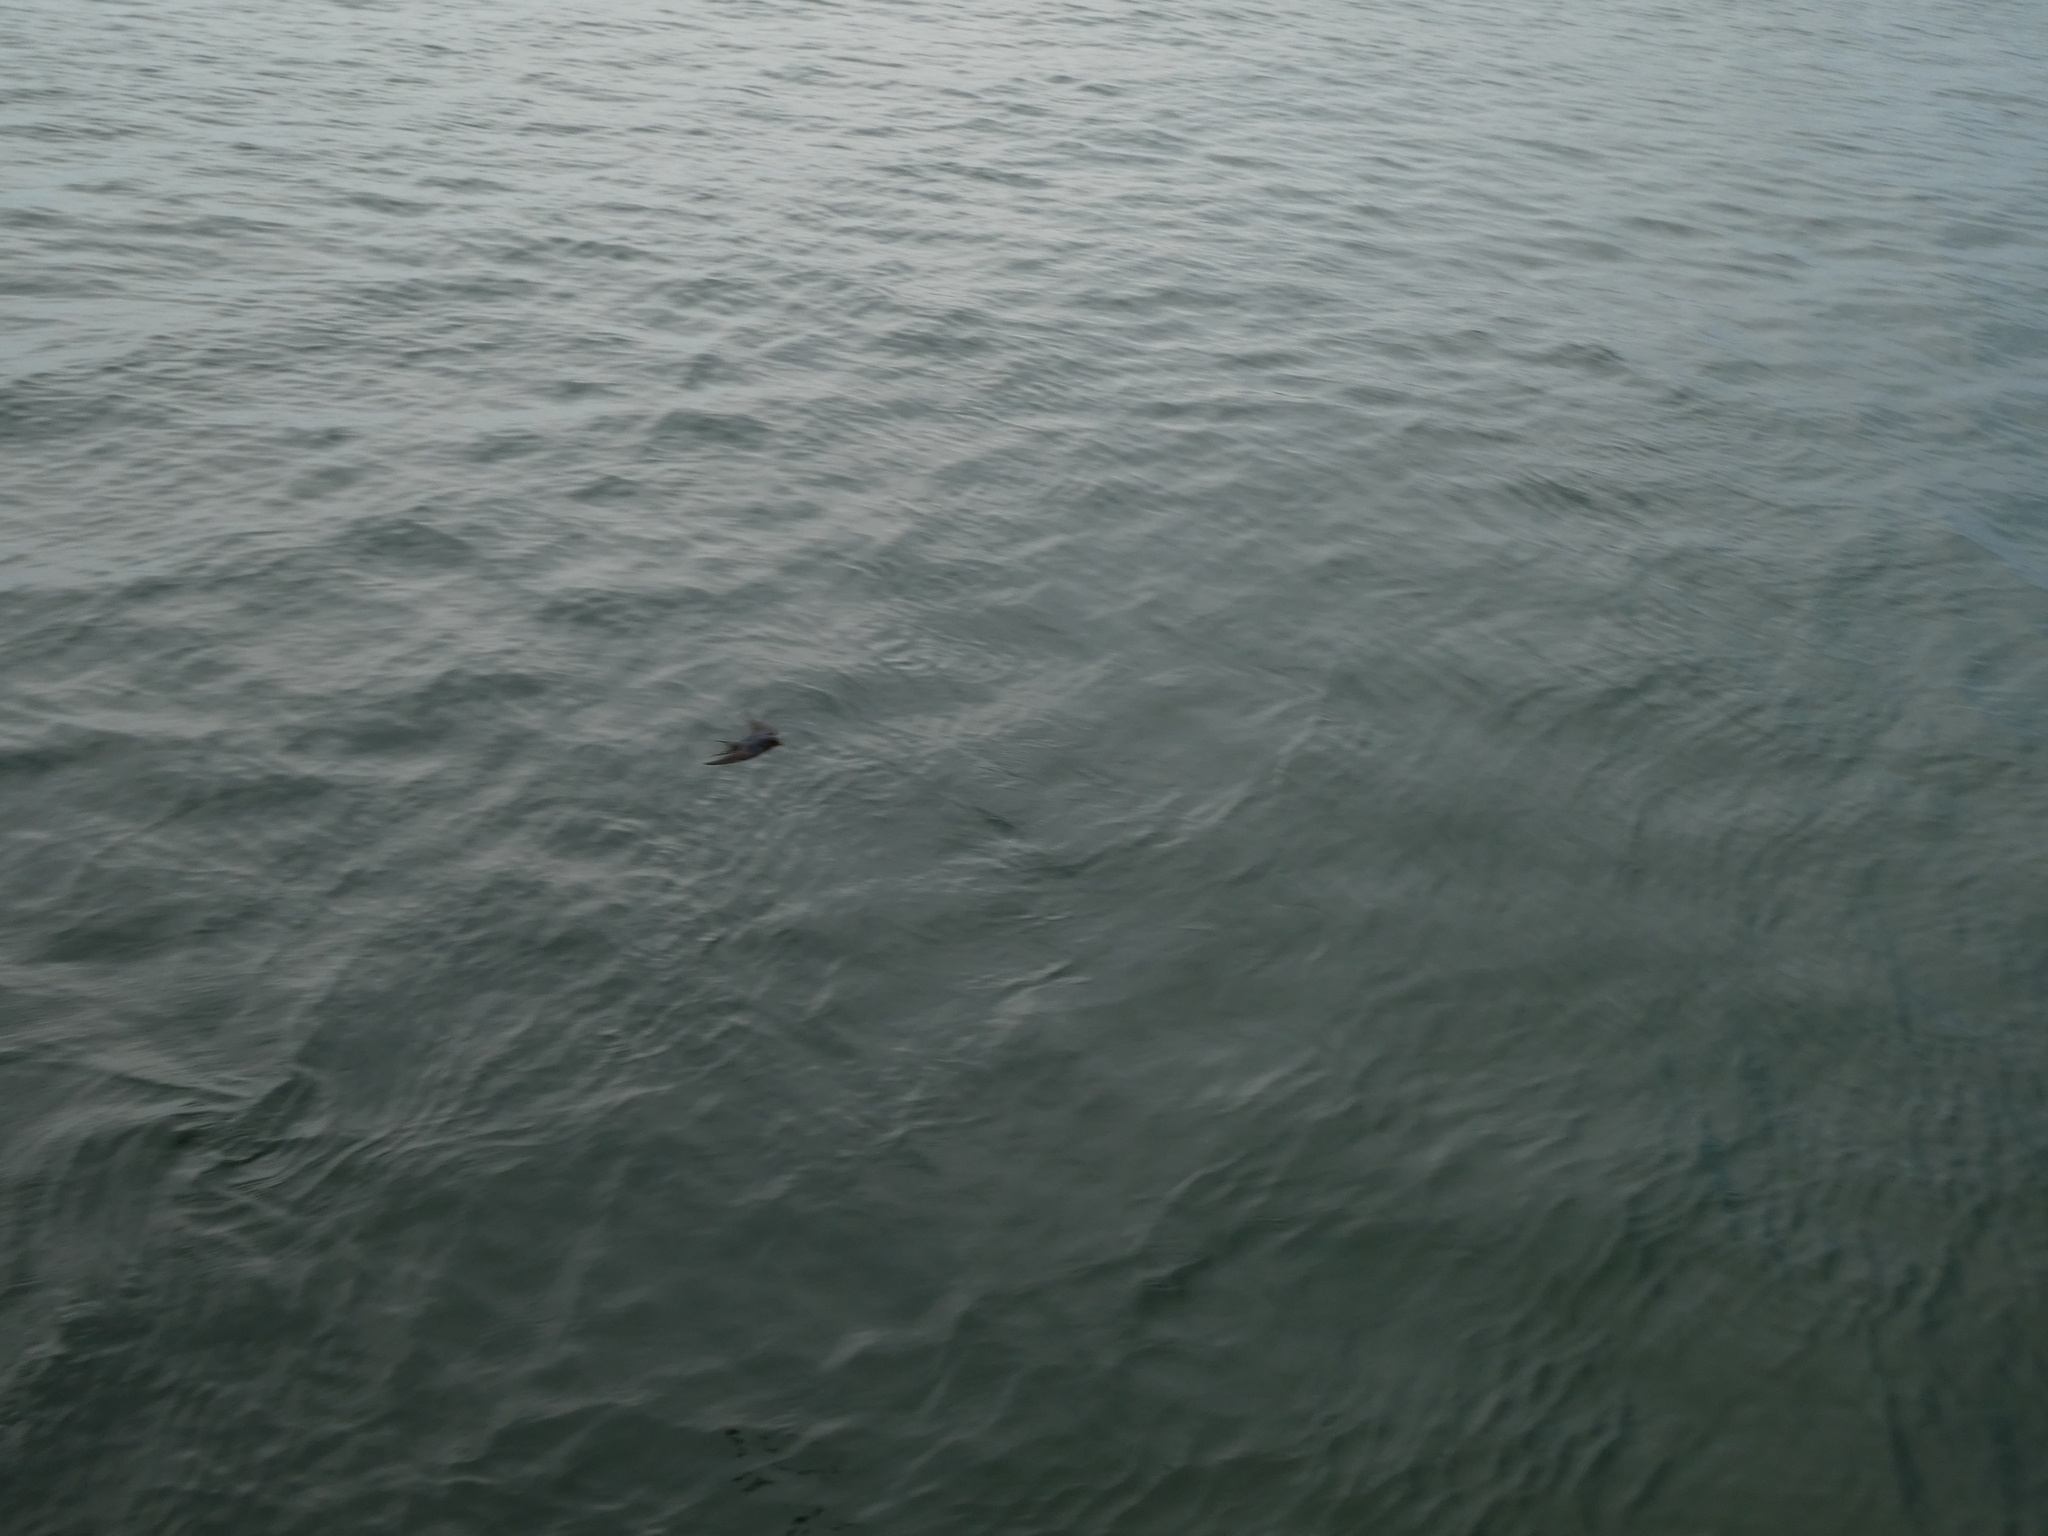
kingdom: Animalia
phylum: Chordata
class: Aves
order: Passeriformes
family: Hirundinidae
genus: Hirundo
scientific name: Hirundo rustica
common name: Barn swallow
